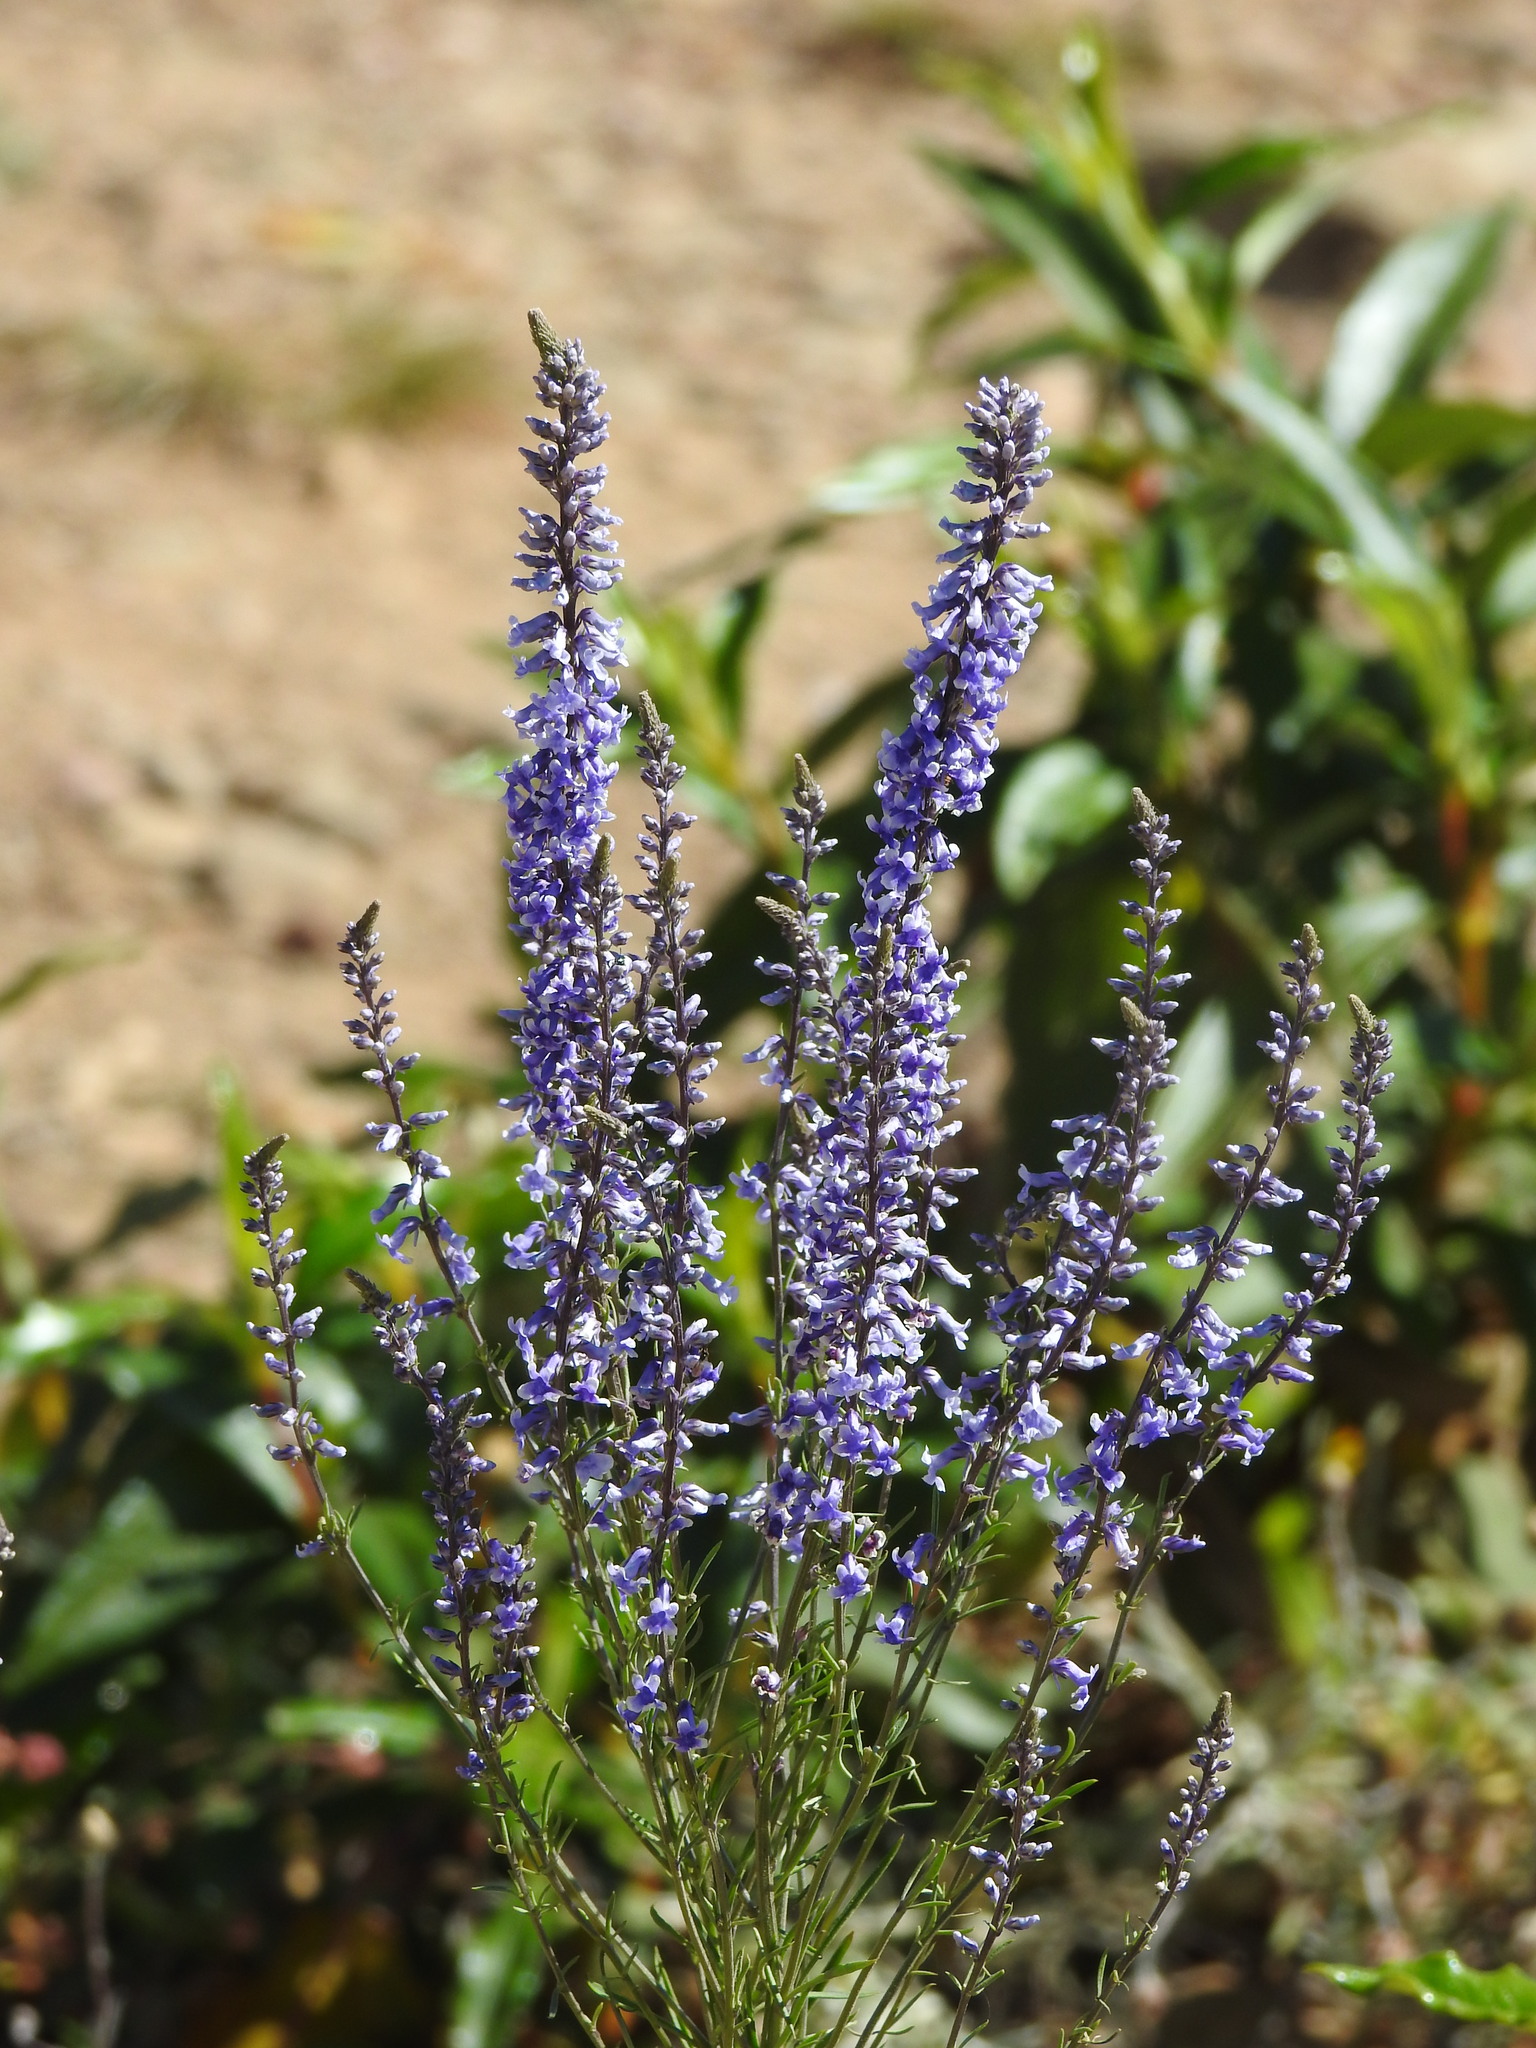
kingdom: Plantae
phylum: Tracheophyta
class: Magnoliopsida
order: Lamiales
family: Plantaginaceae
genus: Anarrhinum
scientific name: Anarrhinum bellidifolium
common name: Daisy-leaved toadflax
